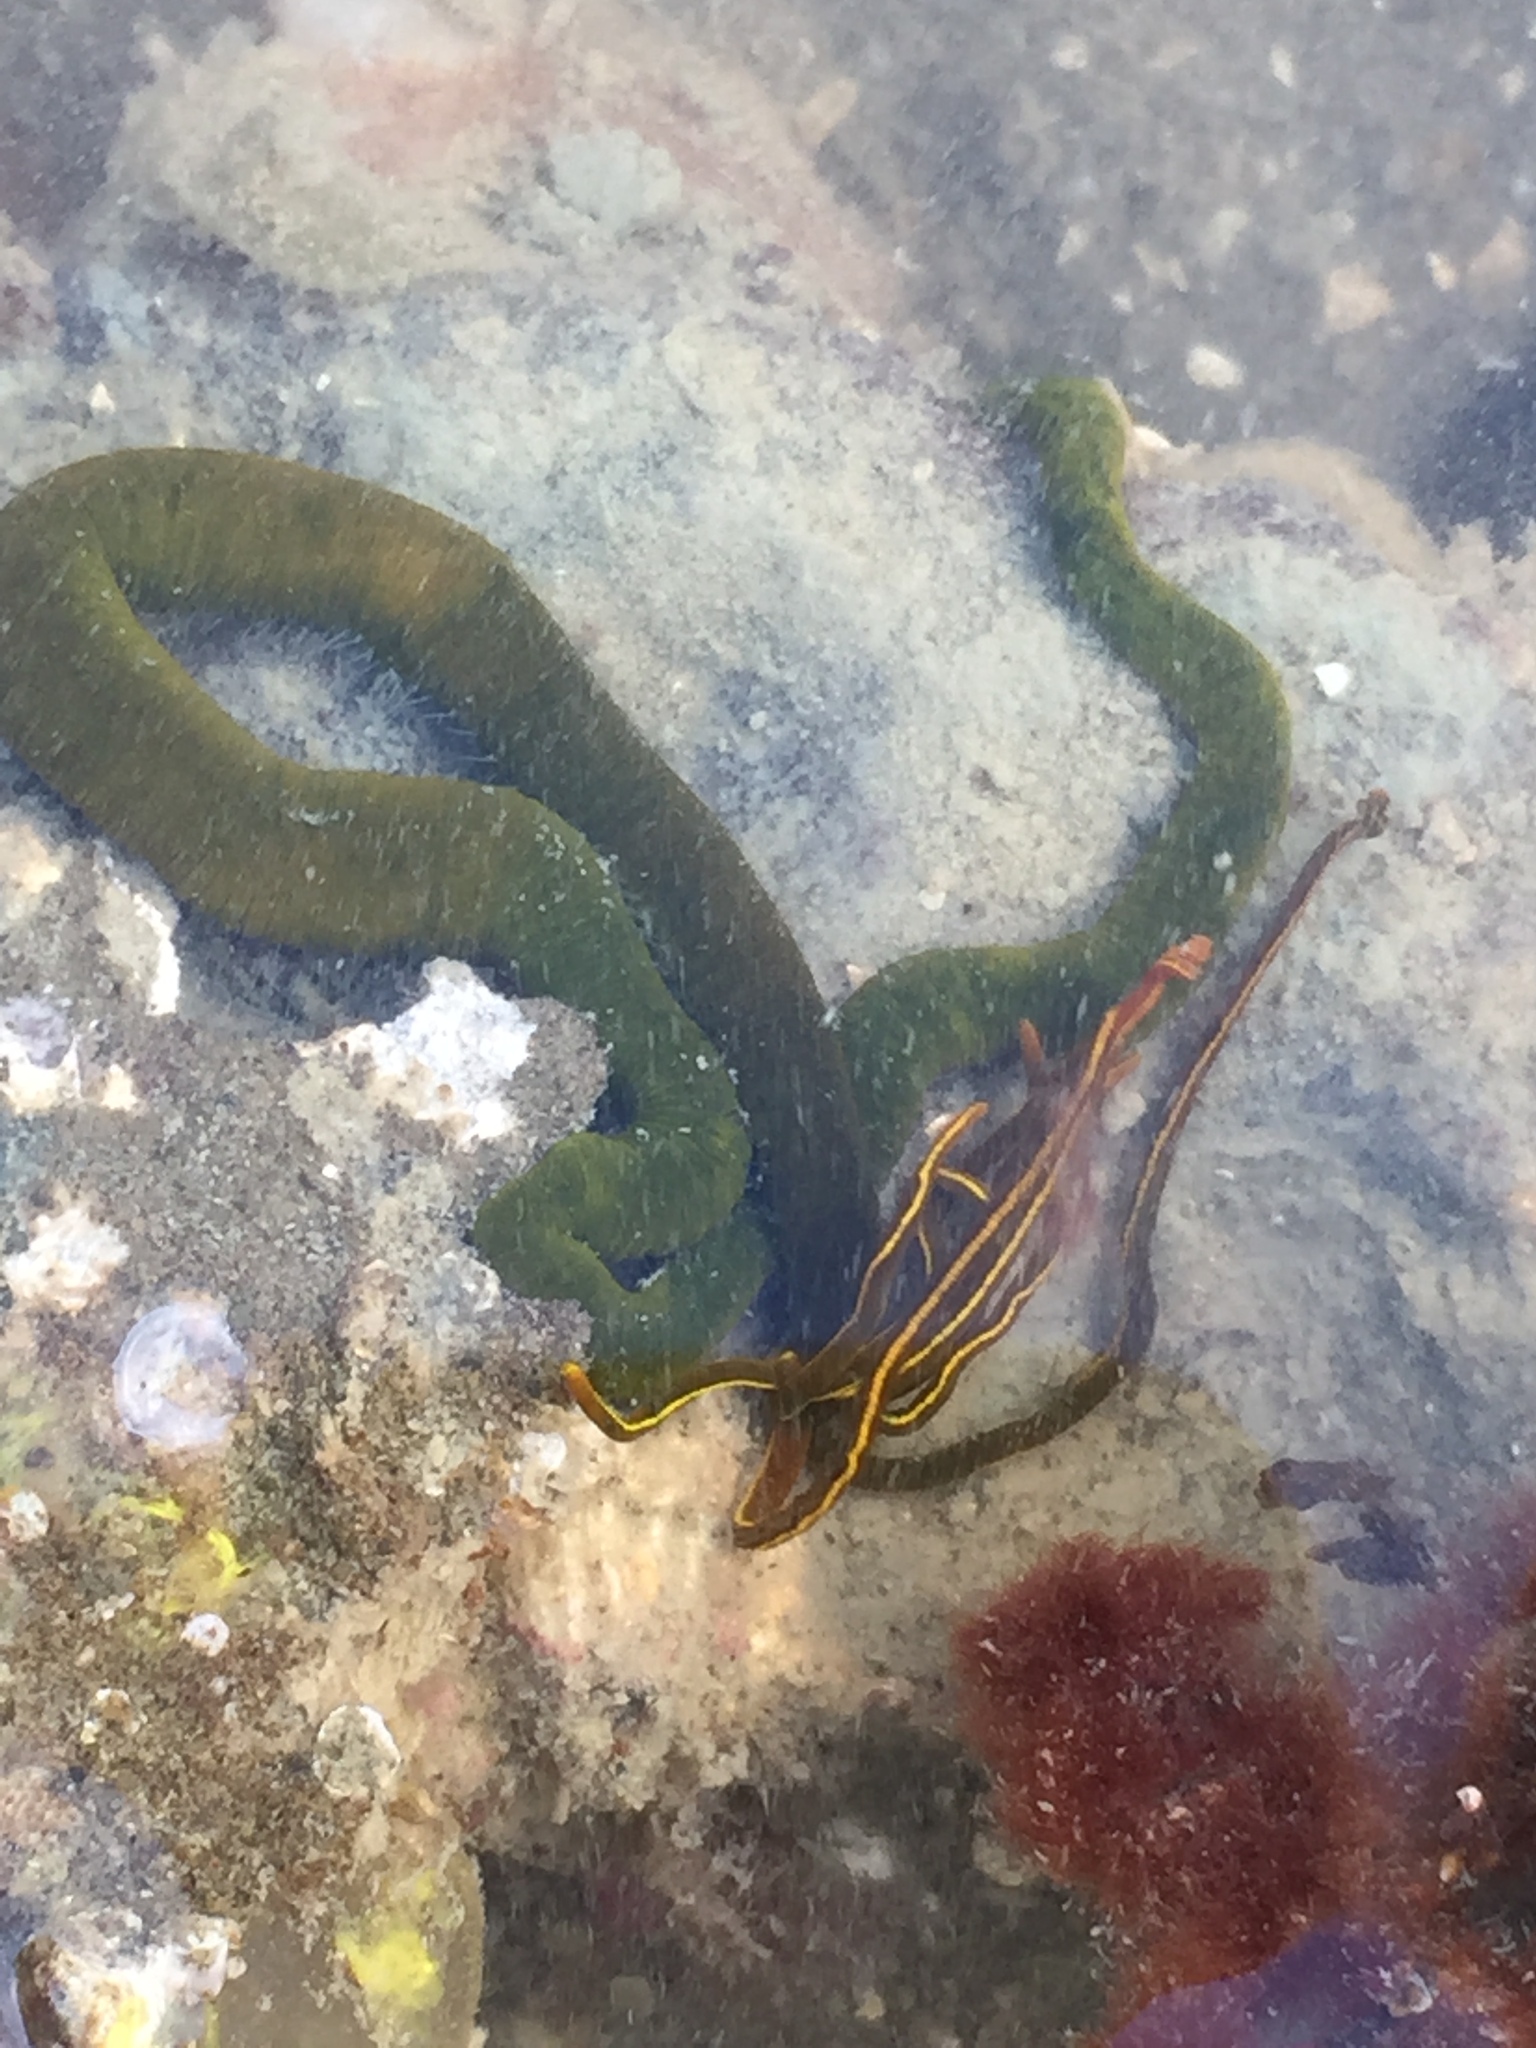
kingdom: Animalia
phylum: Annelida
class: Polychaeta
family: Acrocirridae
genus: Acrocirrus
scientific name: Acrocirrus trisectus
